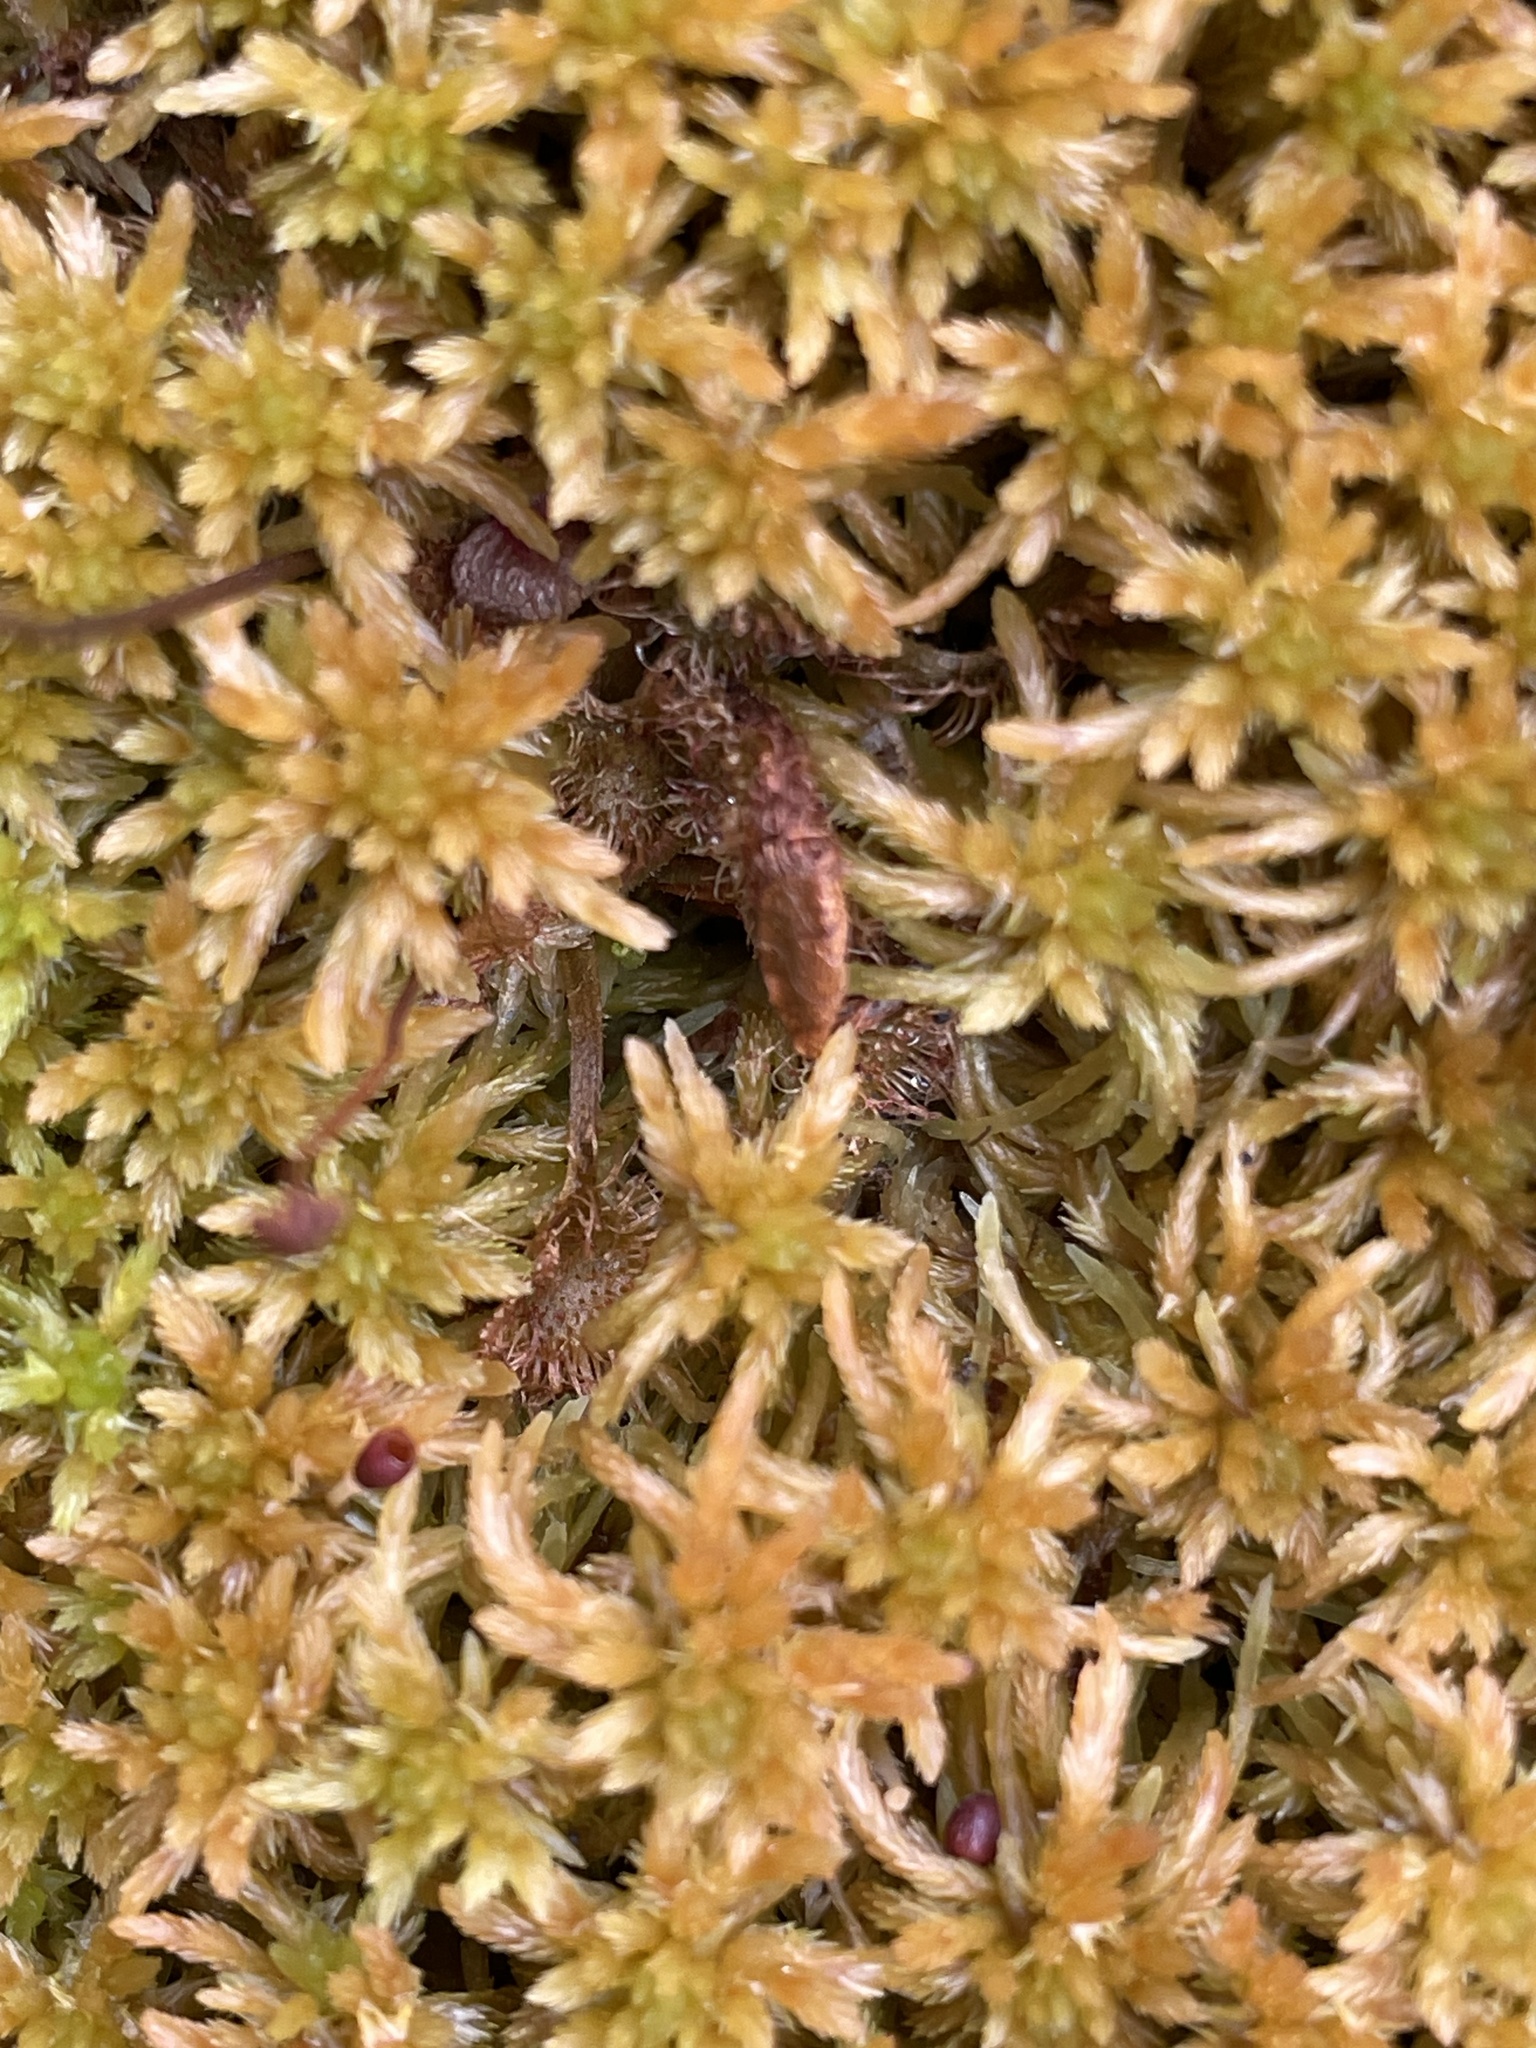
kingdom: Plantae
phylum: Tracheophyta
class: Magnoliopsida
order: Caryophyllales
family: Droseraceae
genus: Drosera
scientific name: Drosera rotundifolia
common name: Round-leaved sundew
